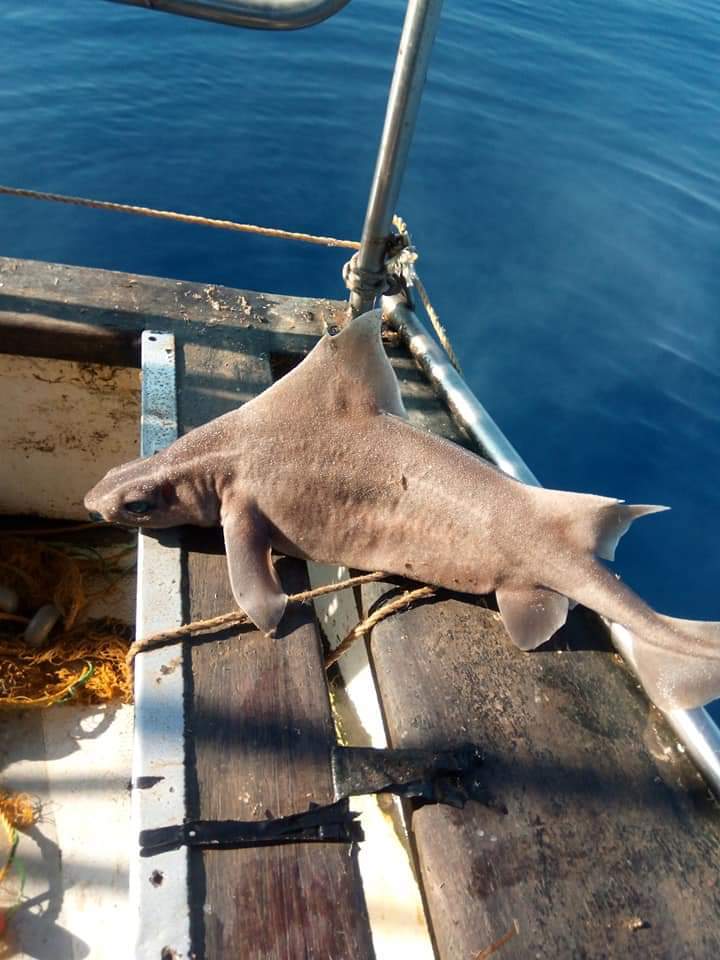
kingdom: Animalia
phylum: Chordata
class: Elasmobranchii
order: Squaliformes
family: Oxynotidae
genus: Oxynotus
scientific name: Oxynotus centrina
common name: Angular roughshark
